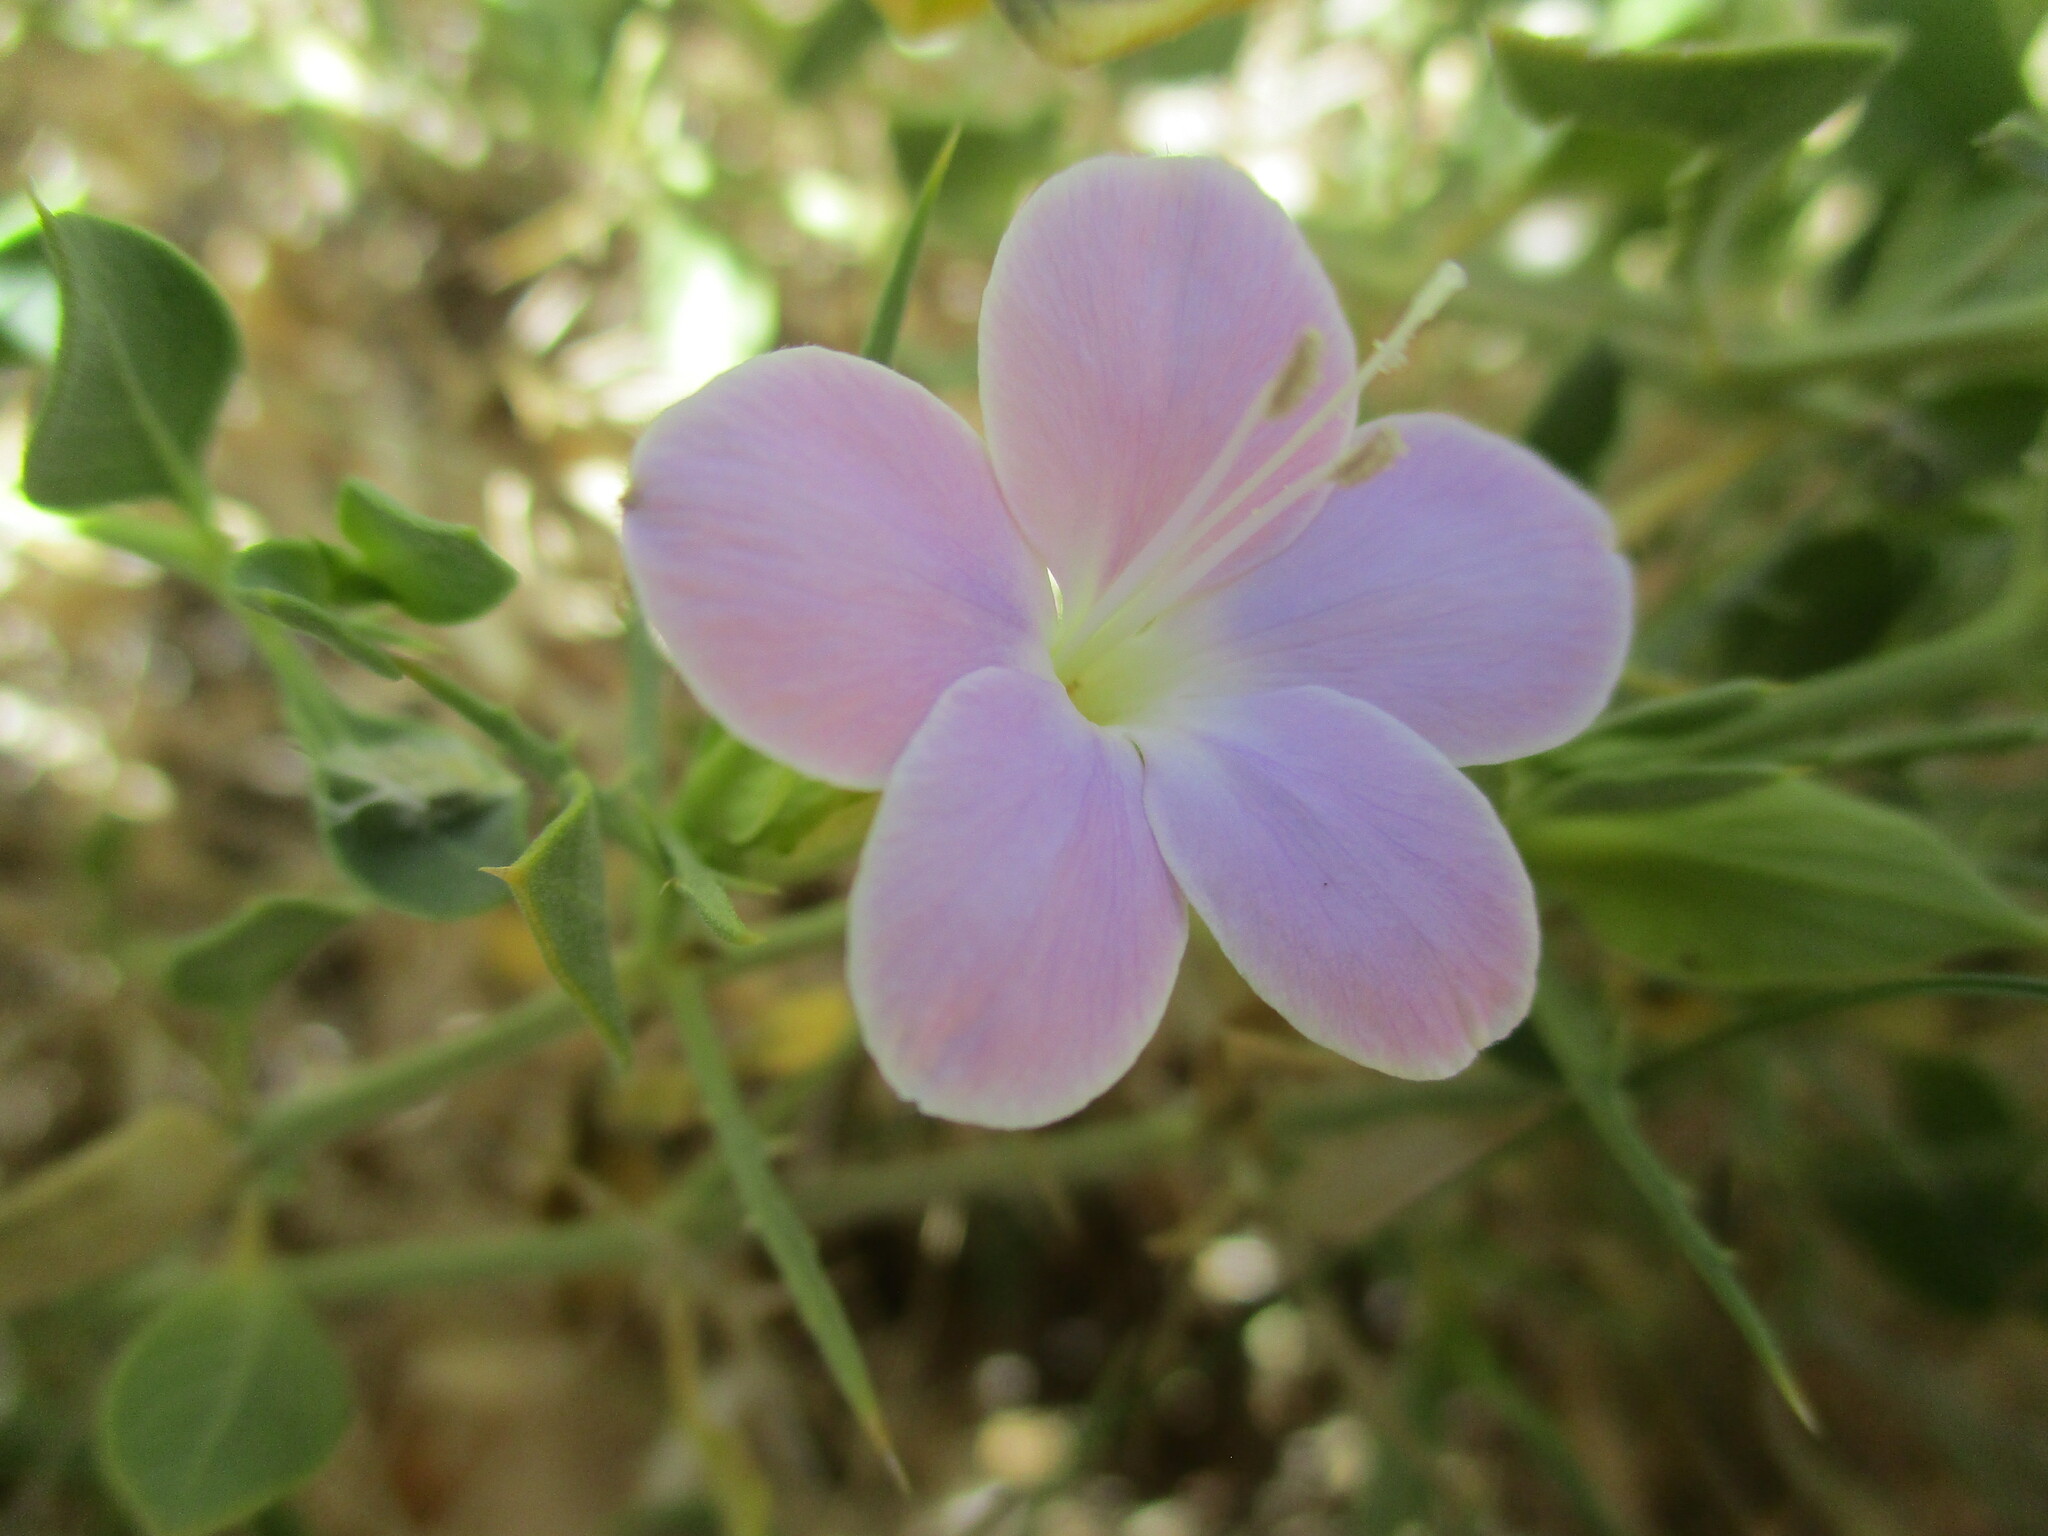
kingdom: Plantae
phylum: Tracheophyta
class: Magnoliopsida
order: Lamiales
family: Acanthaceae
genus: Barleria
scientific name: Barleria lanceolata
